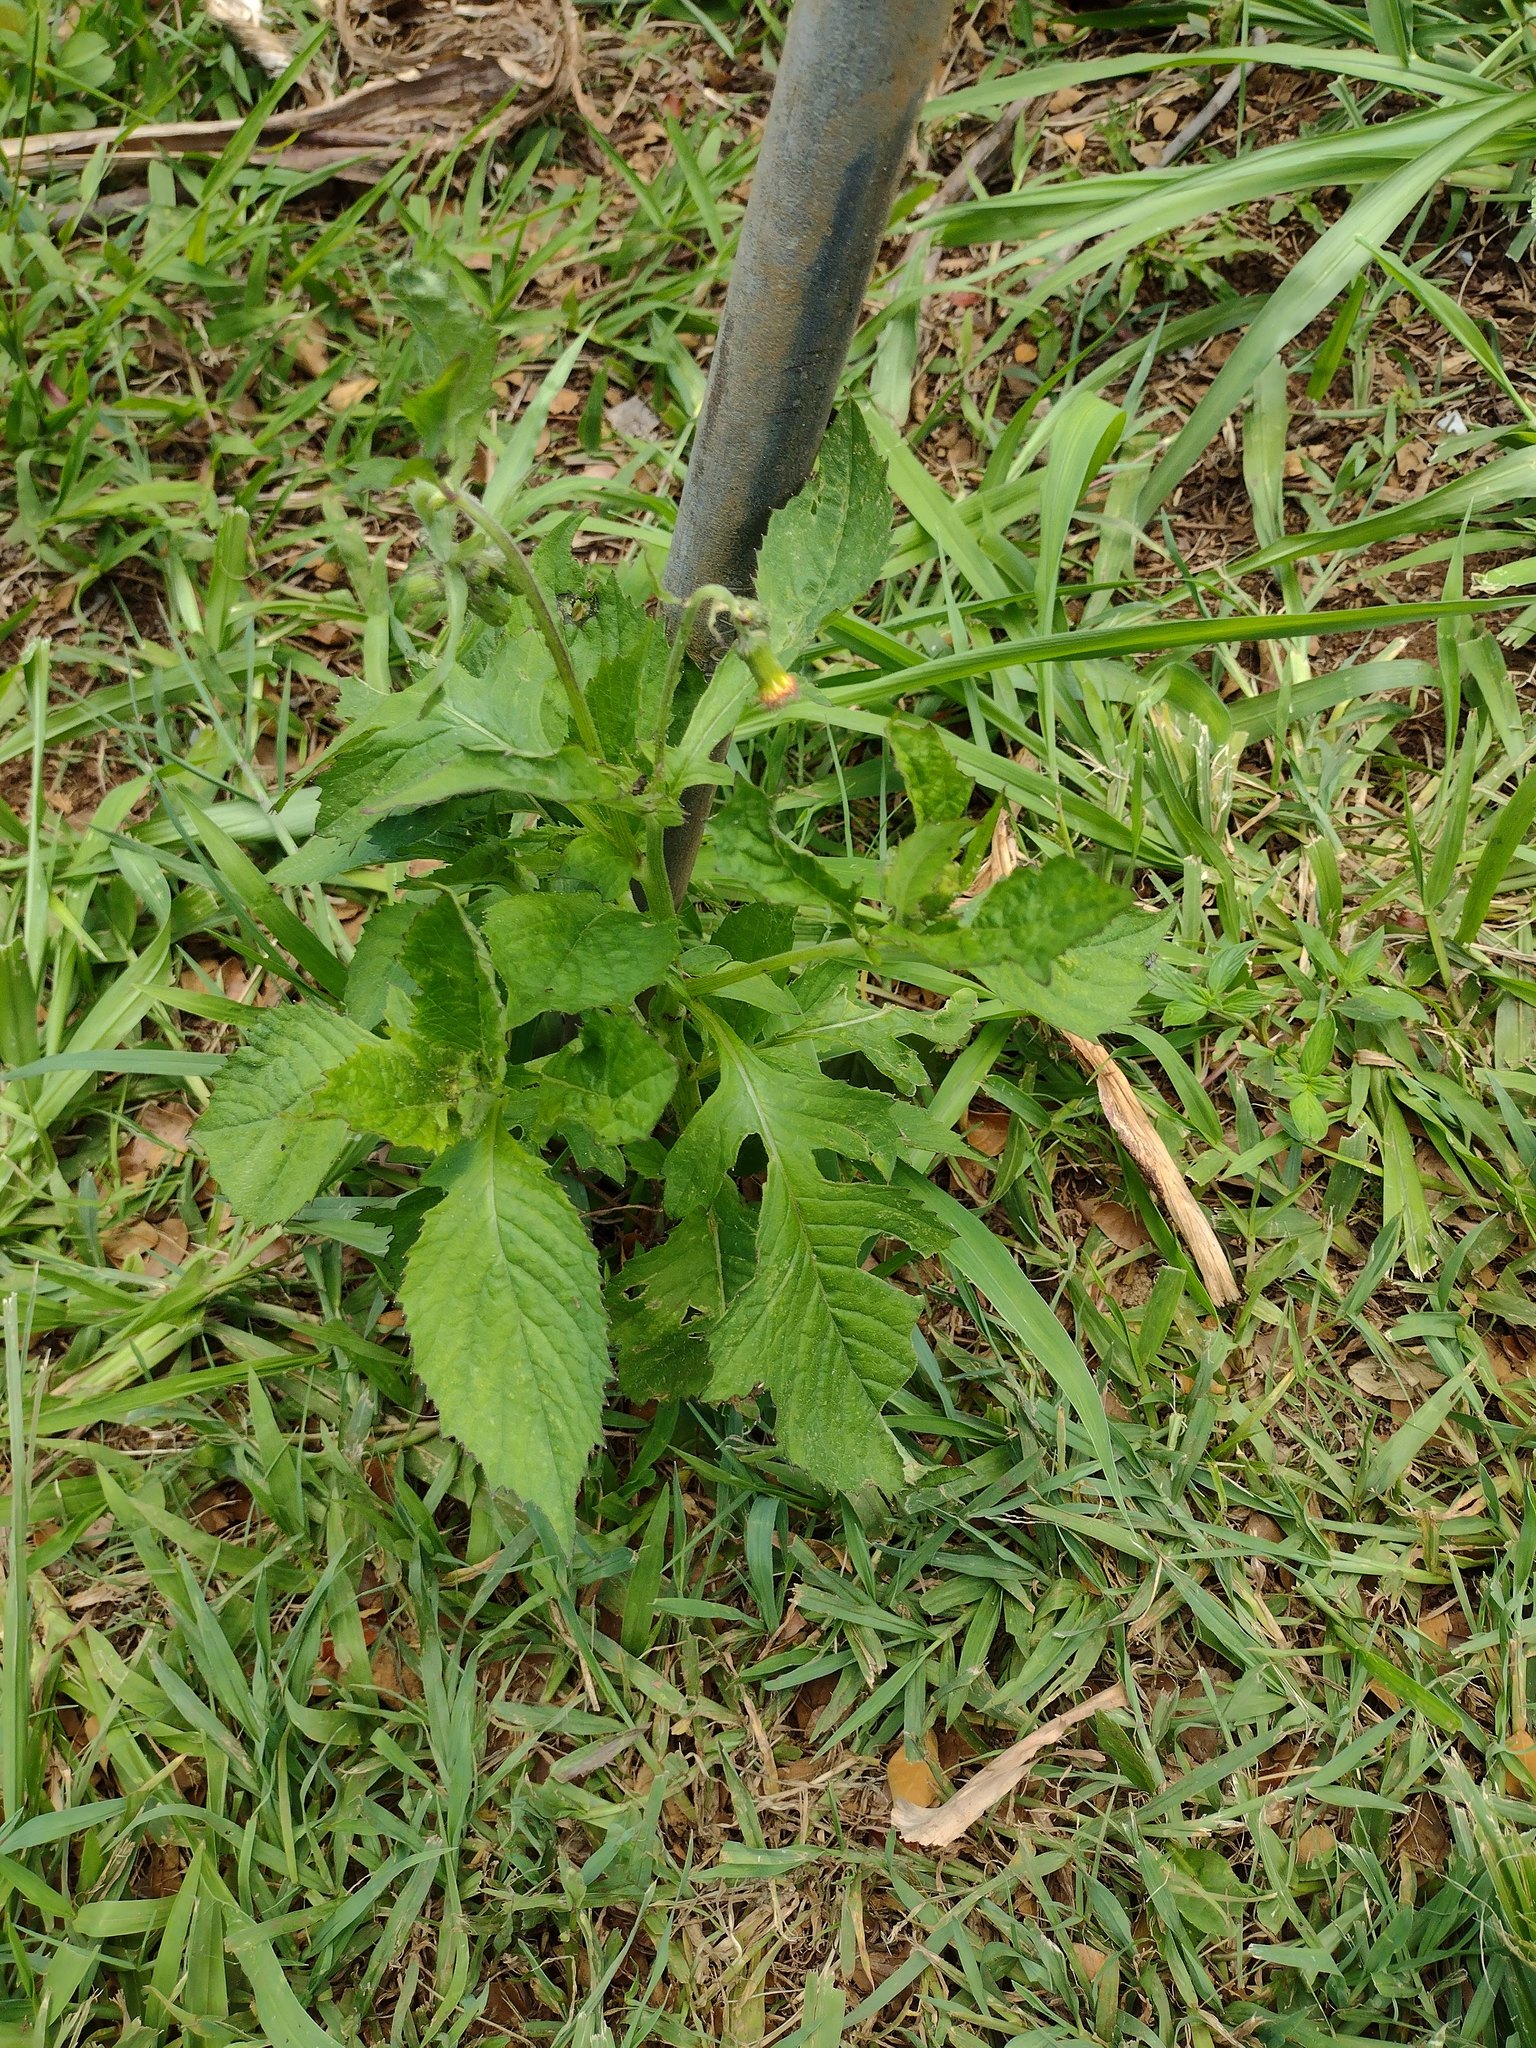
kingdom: Plantae
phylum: Tracheophyta
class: Magnoliopsida
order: Asterales
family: Asteraceae
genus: Crassocephalum
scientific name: Crassocephalum crepidioides
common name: Redflower ragleaf
